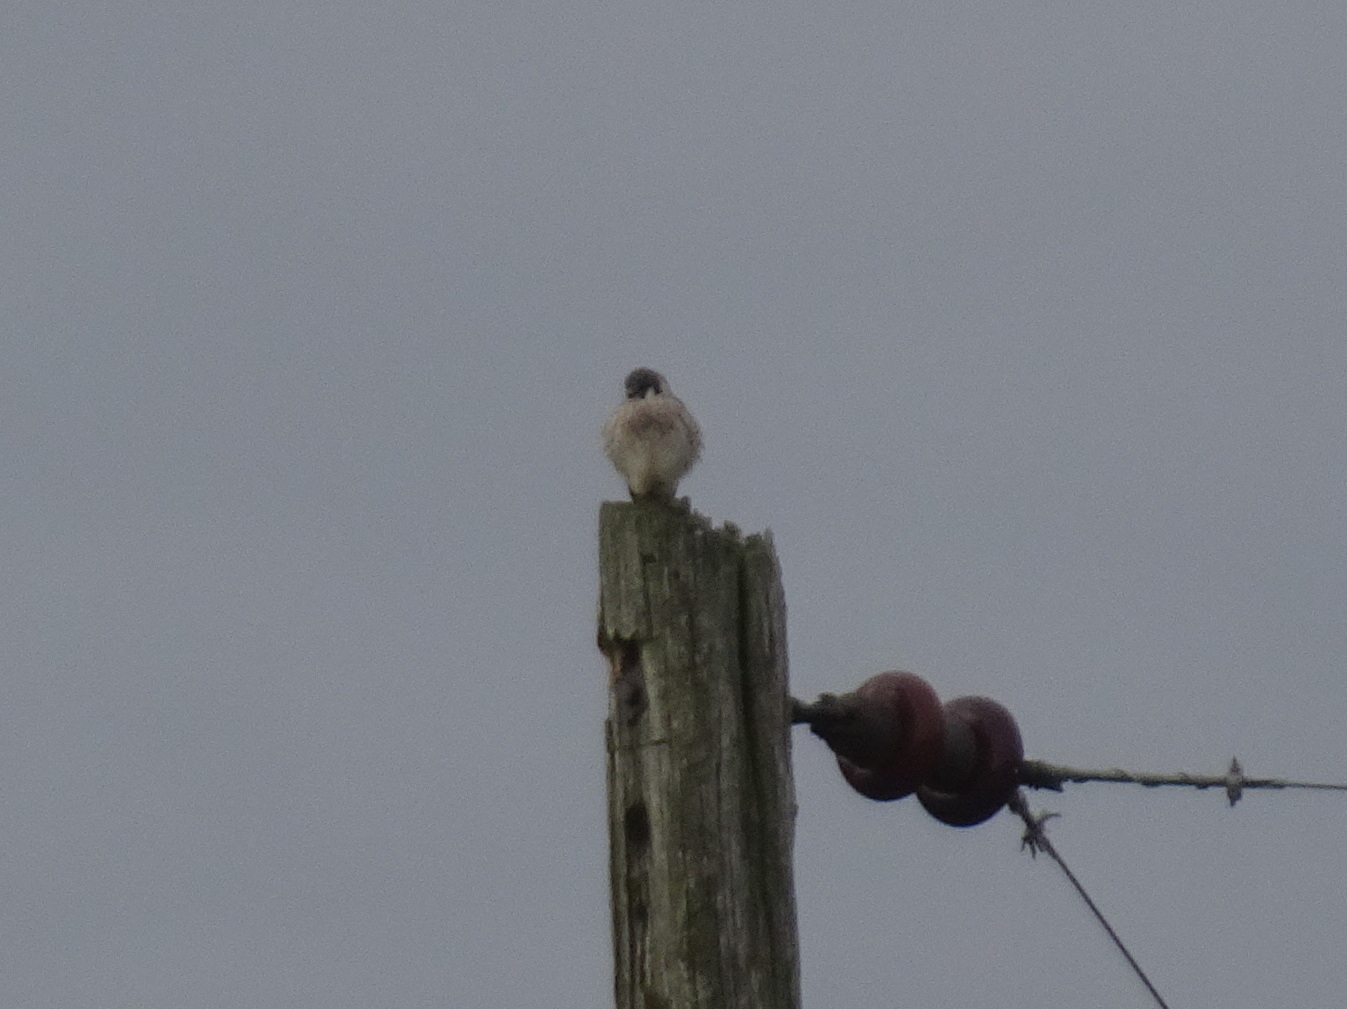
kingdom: Animalia
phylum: Chordata
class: Aves
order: Falconiformes
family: Falconidae
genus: Falco
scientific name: Falco sparverius
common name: American kestrel
